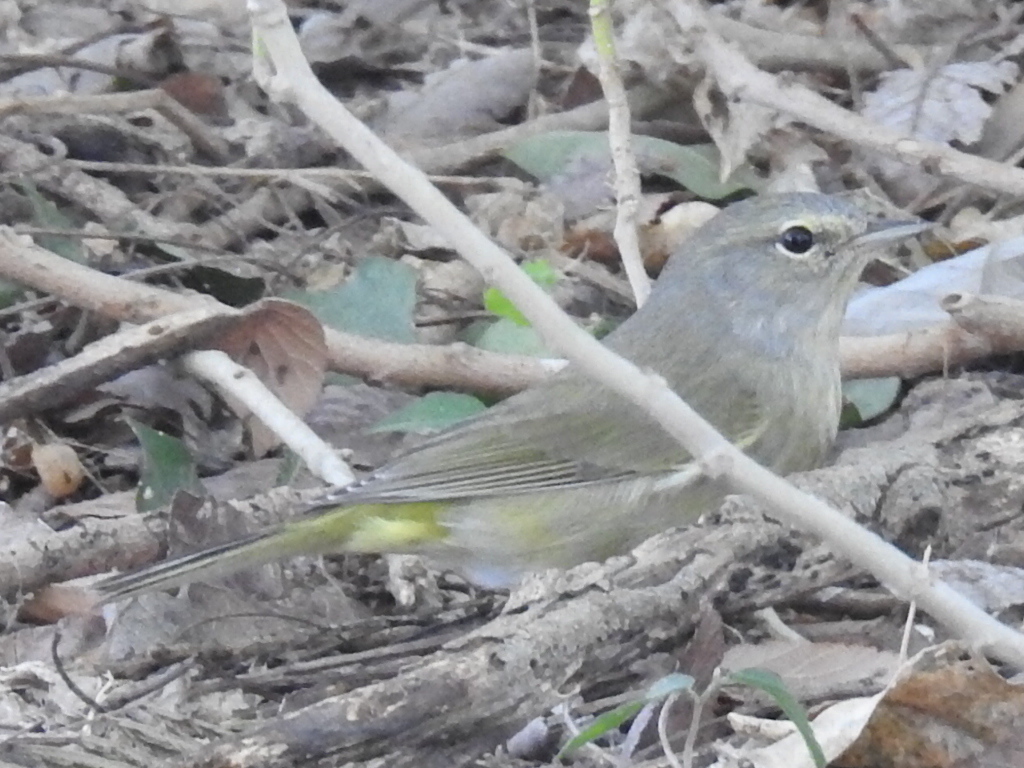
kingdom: Animalia
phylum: Chordata
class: Aves
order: Passeriformes
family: Parulidae
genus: Leiothlypis
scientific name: Leiothlypis celata
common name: Orange-crowned warbler
